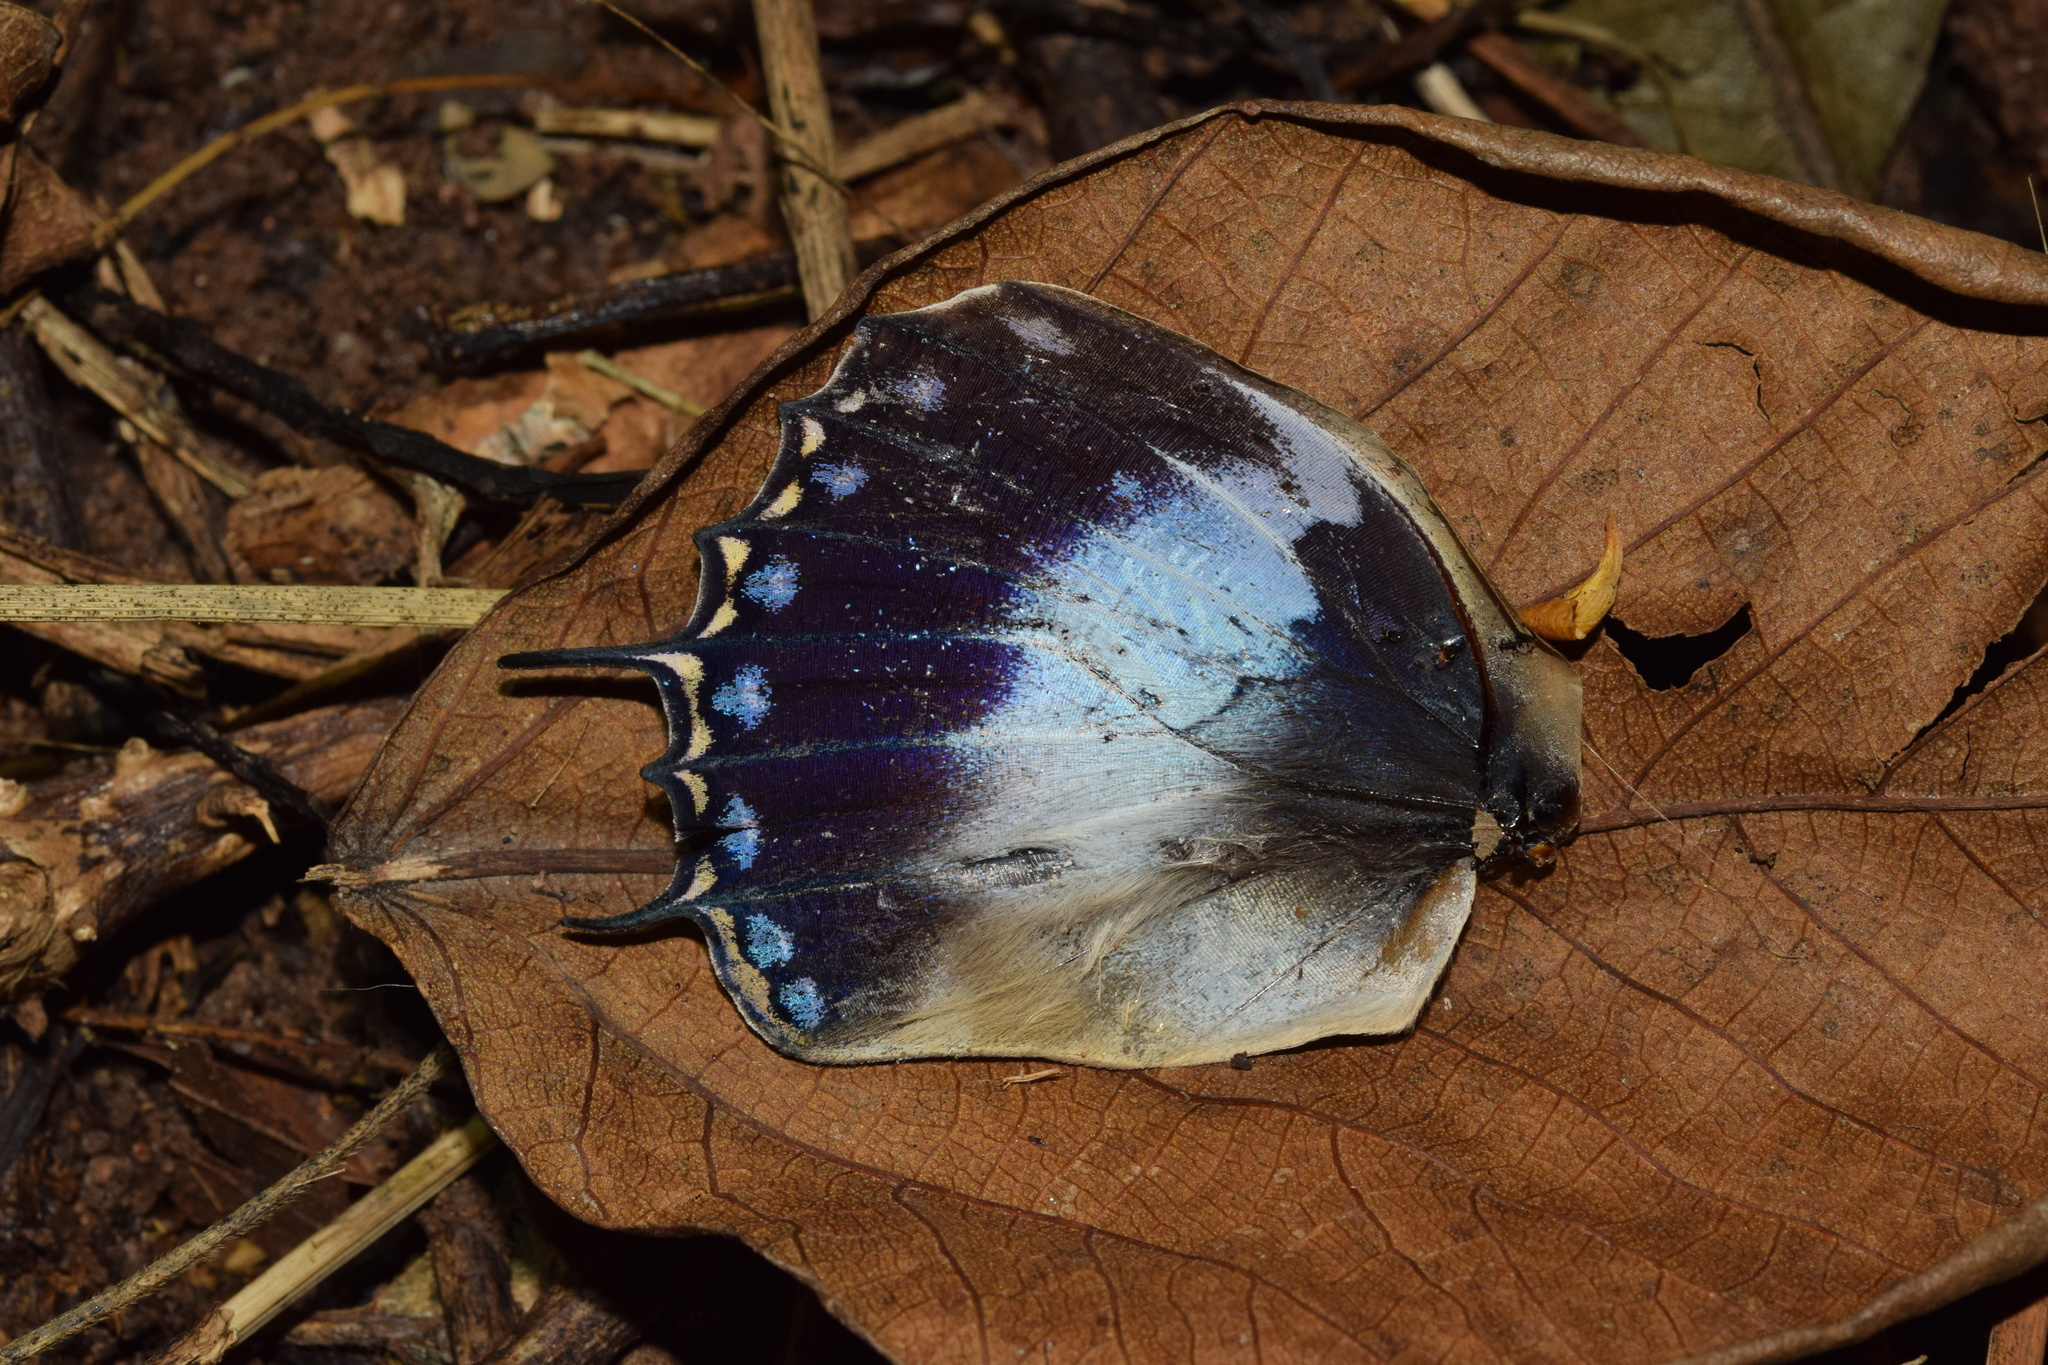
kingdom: Animalia
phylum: Arthropoda
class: Insecta
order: Lepidoptera
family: Nymphalidae
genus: Charaxes
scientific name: Charaxes cithaeron
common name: Blue-spotted charaxes
